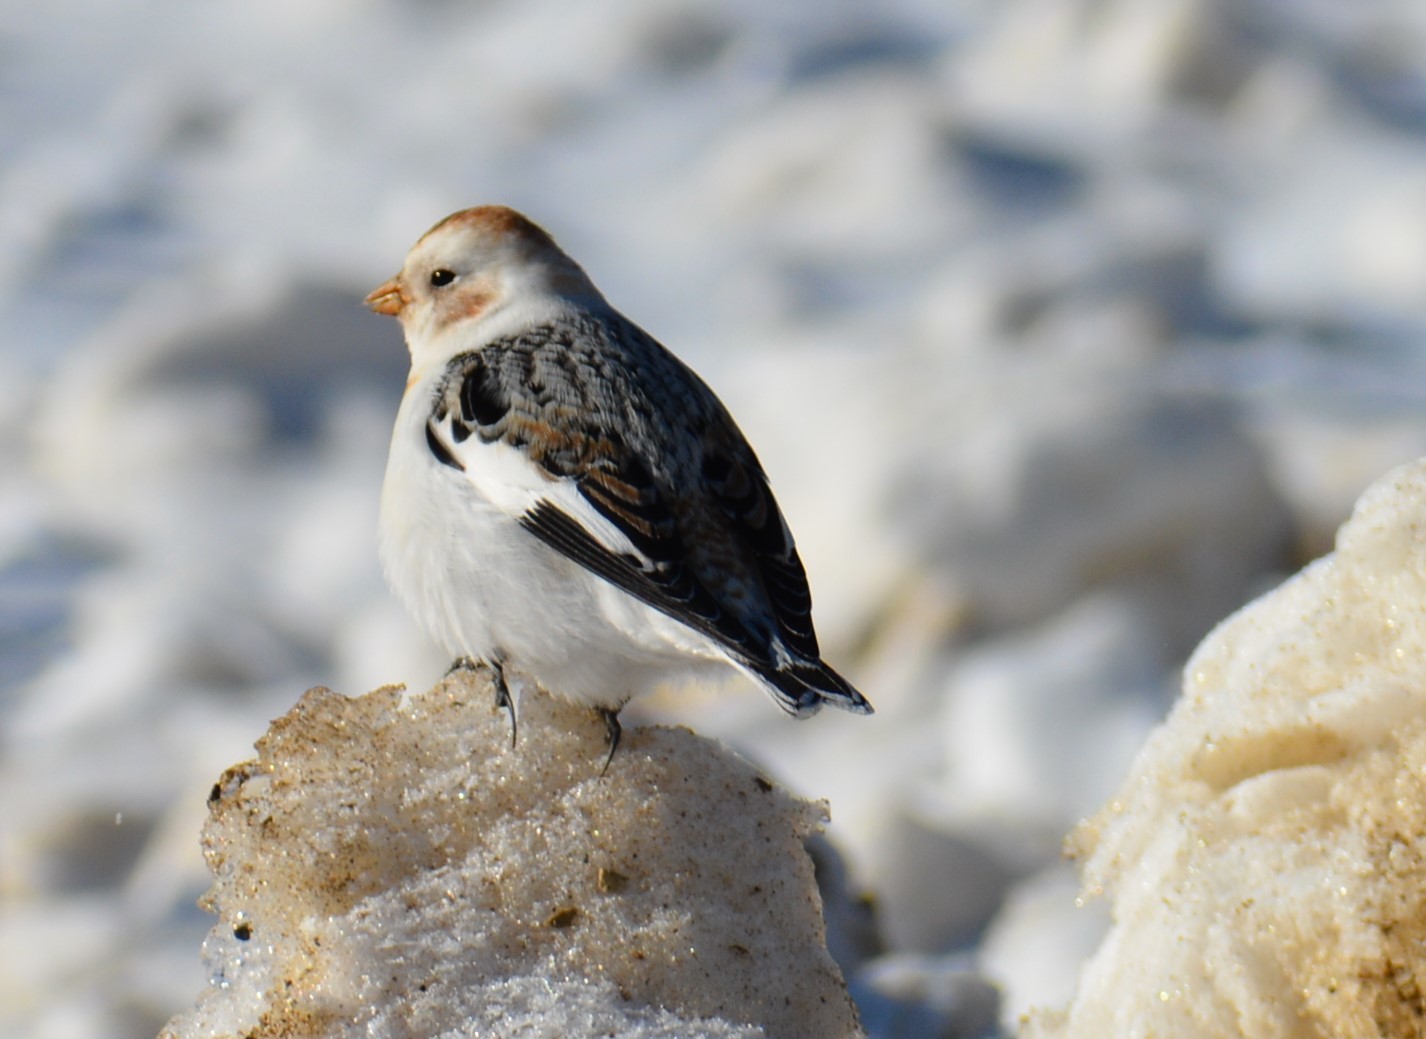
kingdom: Animalia
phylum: Chordata
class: Aves
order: Passeriformes
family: Calcariidae
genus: Plectrophenax
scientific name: Plectrophenax nivalis
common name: Snow bunting
